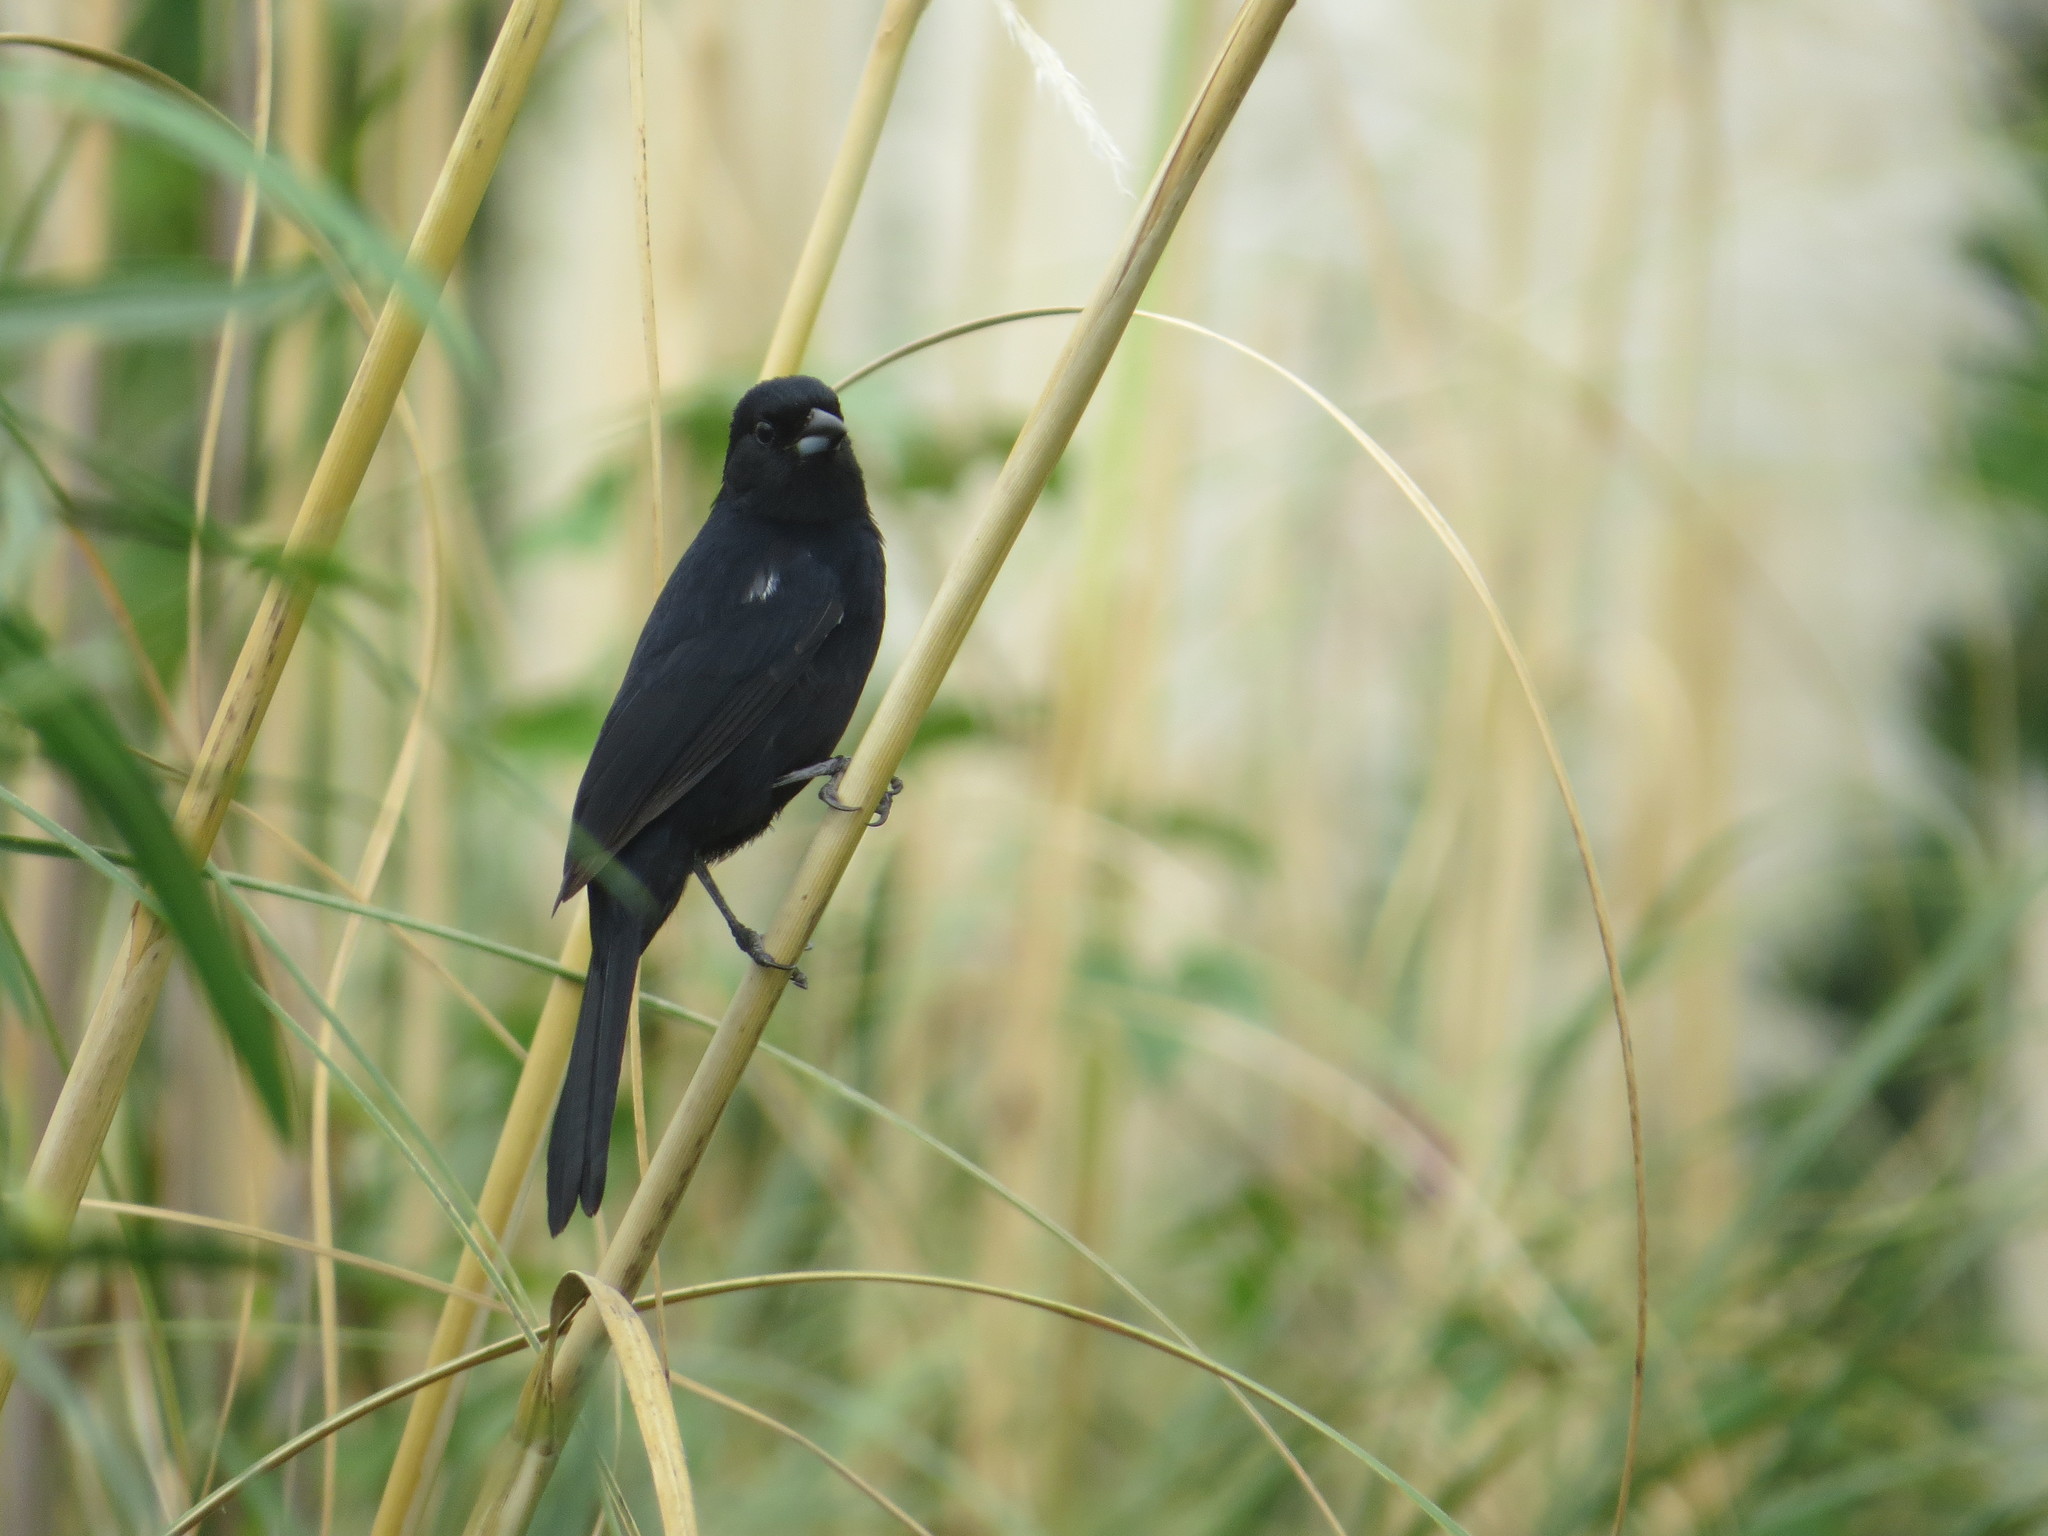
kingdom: Animalia
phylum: Chordata
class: Aves
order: Passeriformes
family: Thraupidae
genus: Tachyphonus
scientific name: Tachyphonus rufus
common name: White-lined tanager
